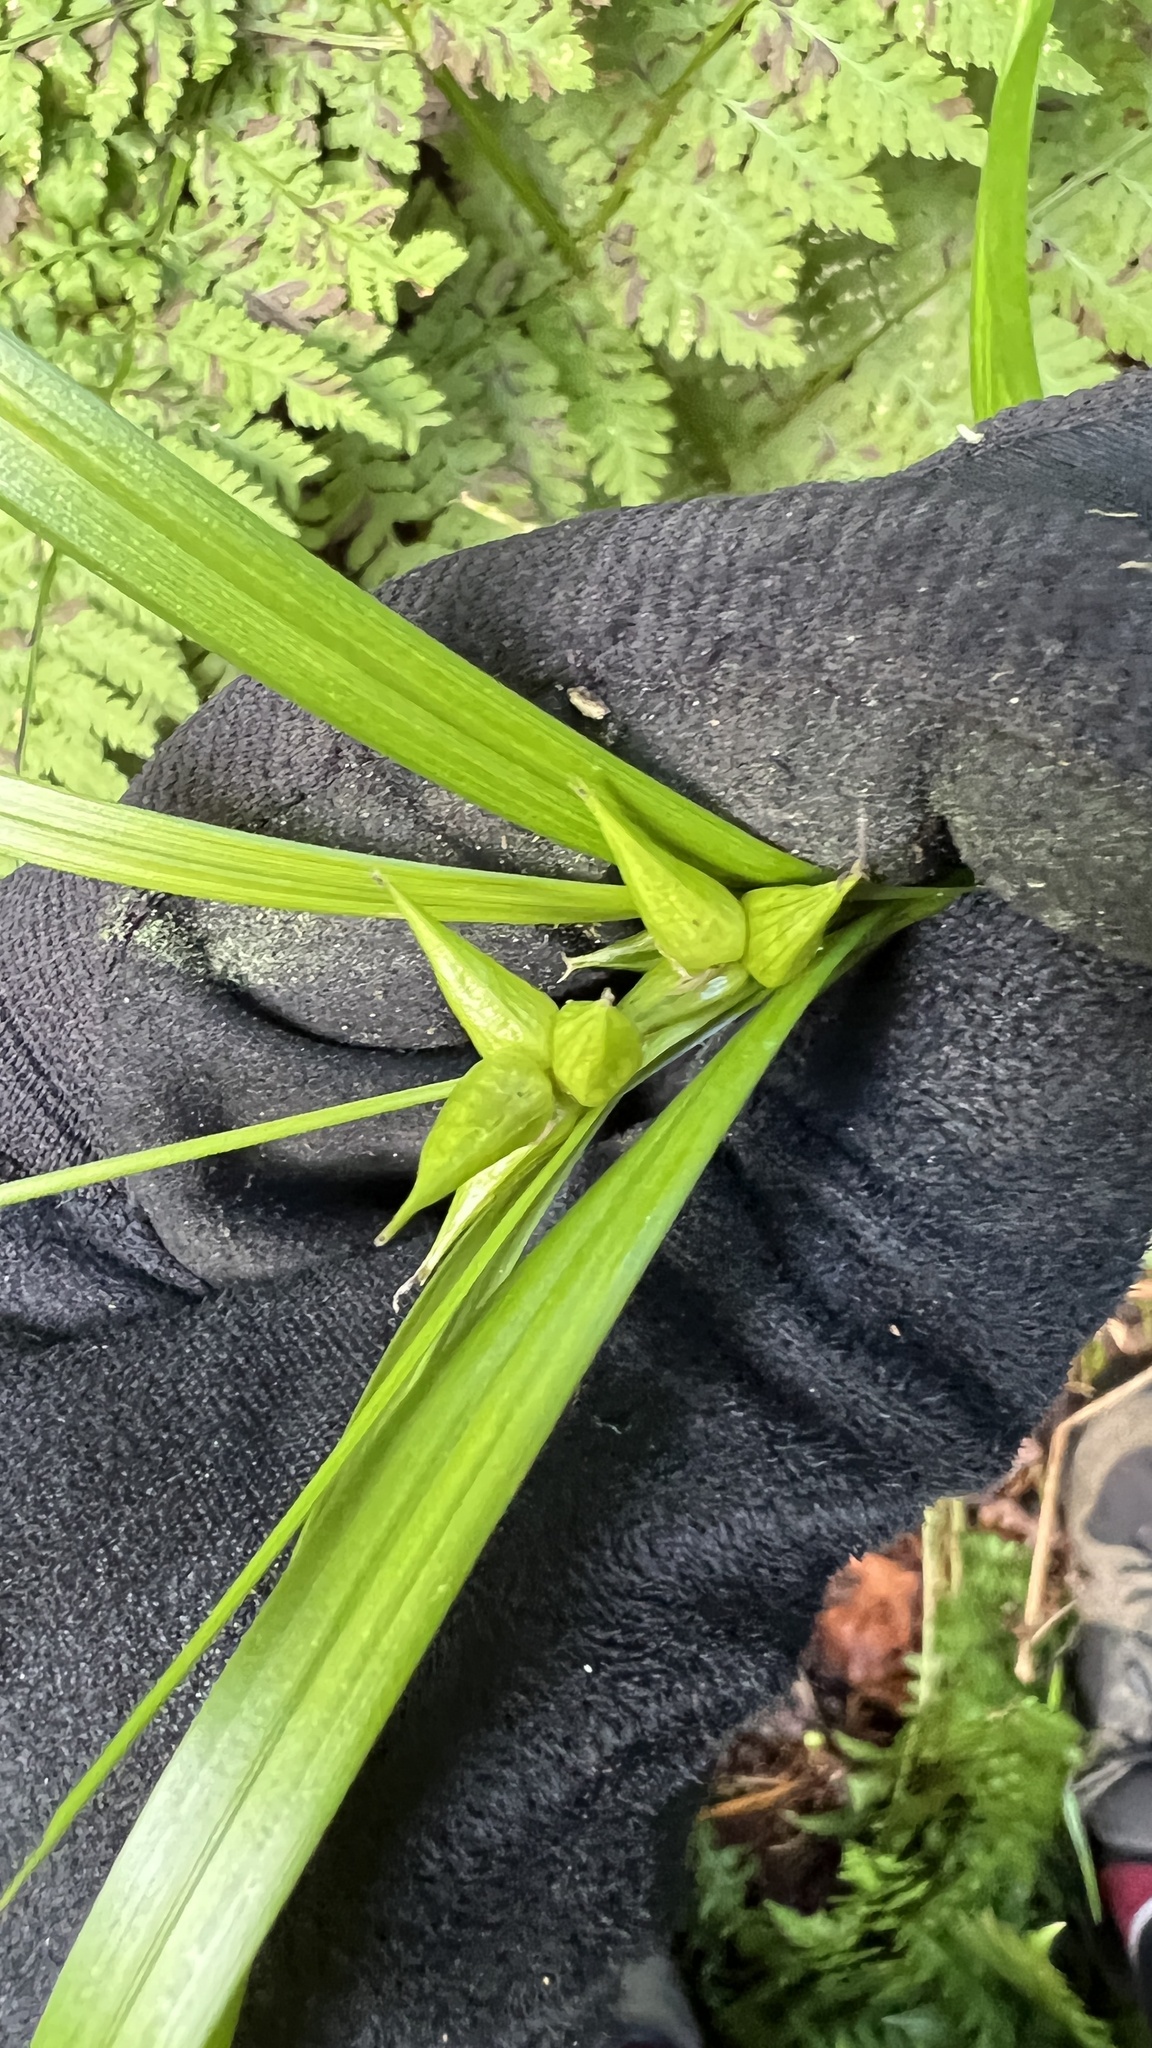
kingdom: Plantae
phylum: Tracheophyta
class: Liliopsida
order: Poales
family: Cyperaceae
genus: Carex
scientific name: Carex intumescens
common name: Greater bladder sedge
